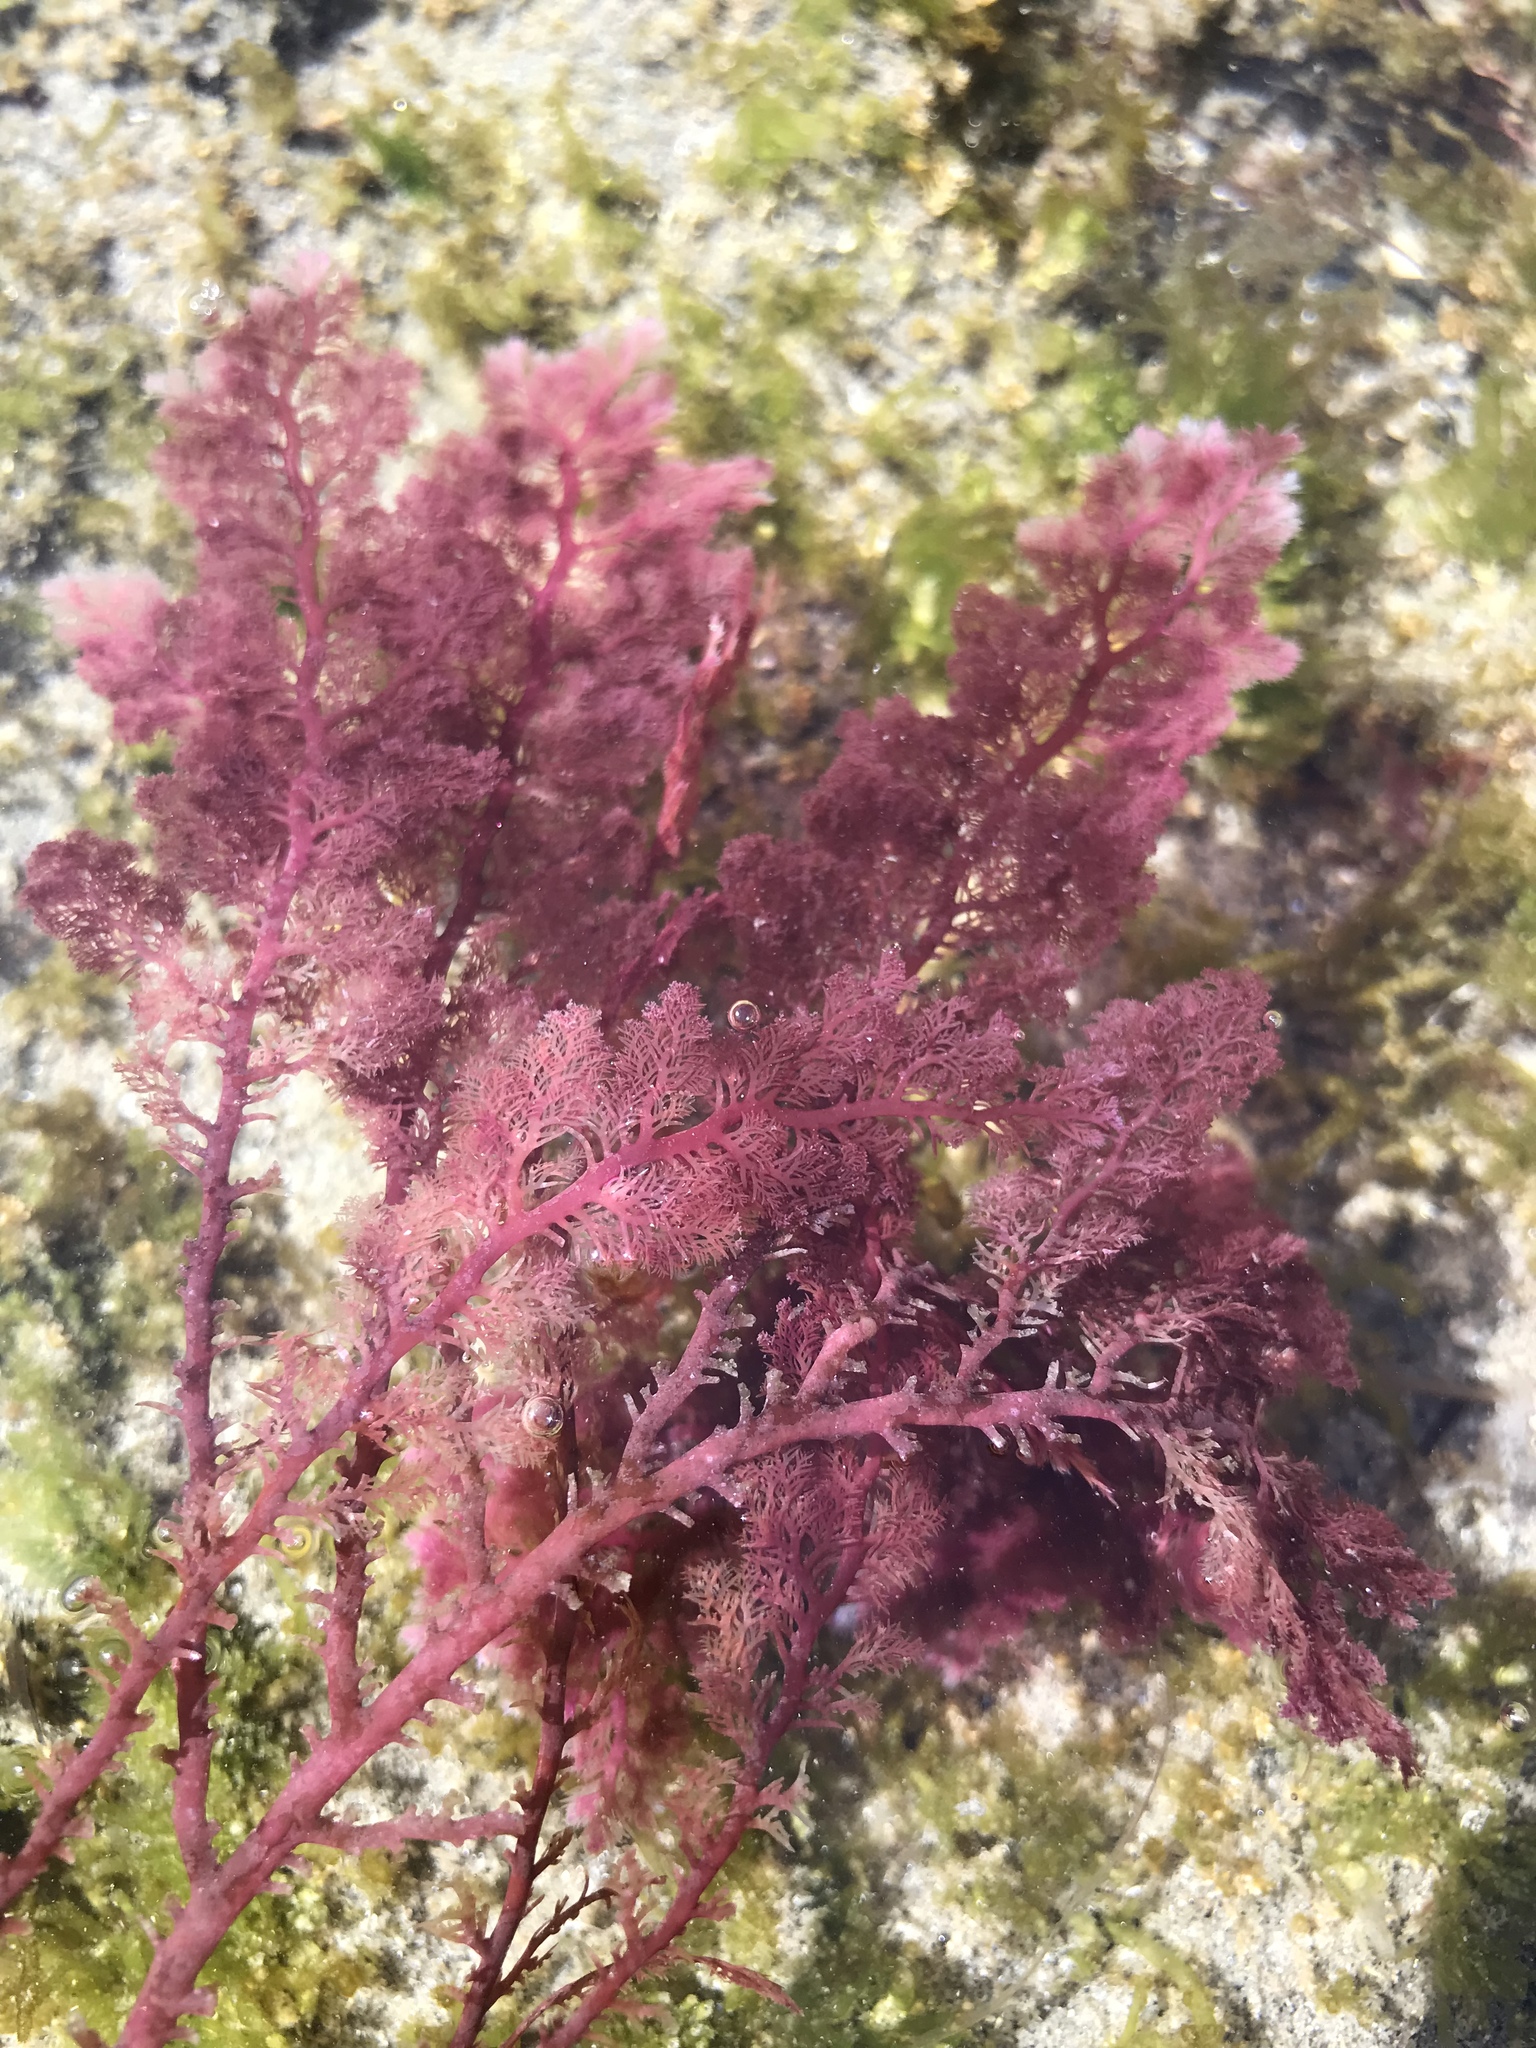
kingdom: Plantae
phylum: Rhodophyta
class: Florideophyceae
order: Plocamiales
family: Plocamiaceae
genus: Plocamium
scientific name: Plocamium cartilagineum
